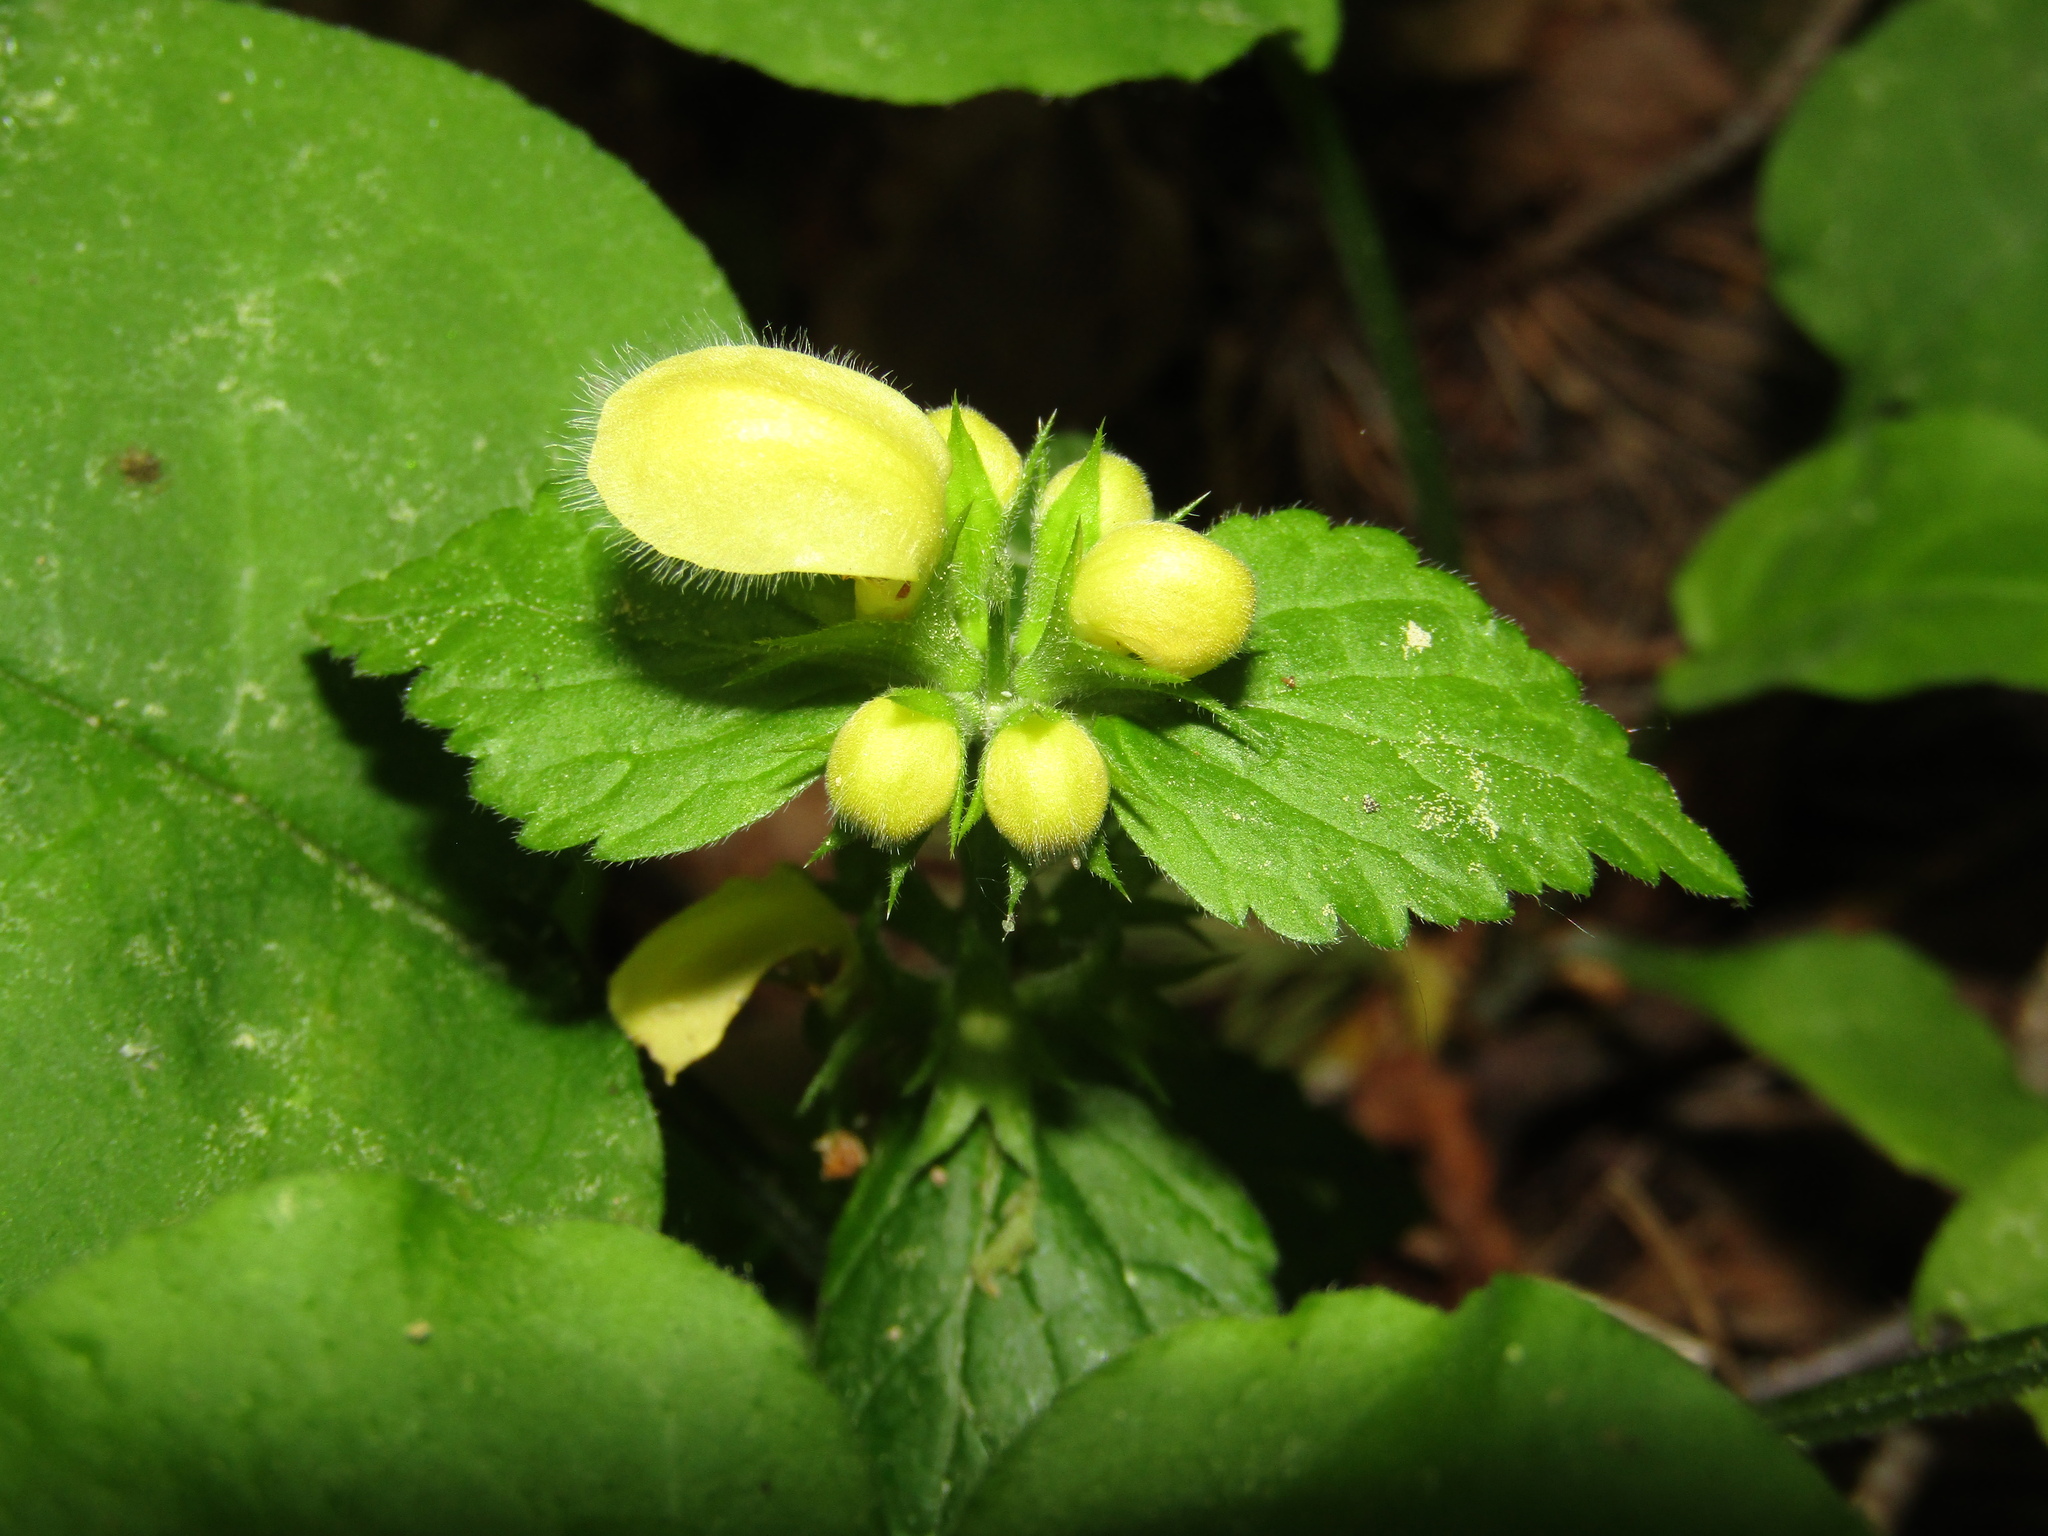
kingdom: Plantae
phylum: Tracheophyta
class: Magnoliopsida
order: Lamiales
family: Lamiaceae
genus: Lamium
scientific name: Lamium galeobdolon
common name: Yellow archangel
